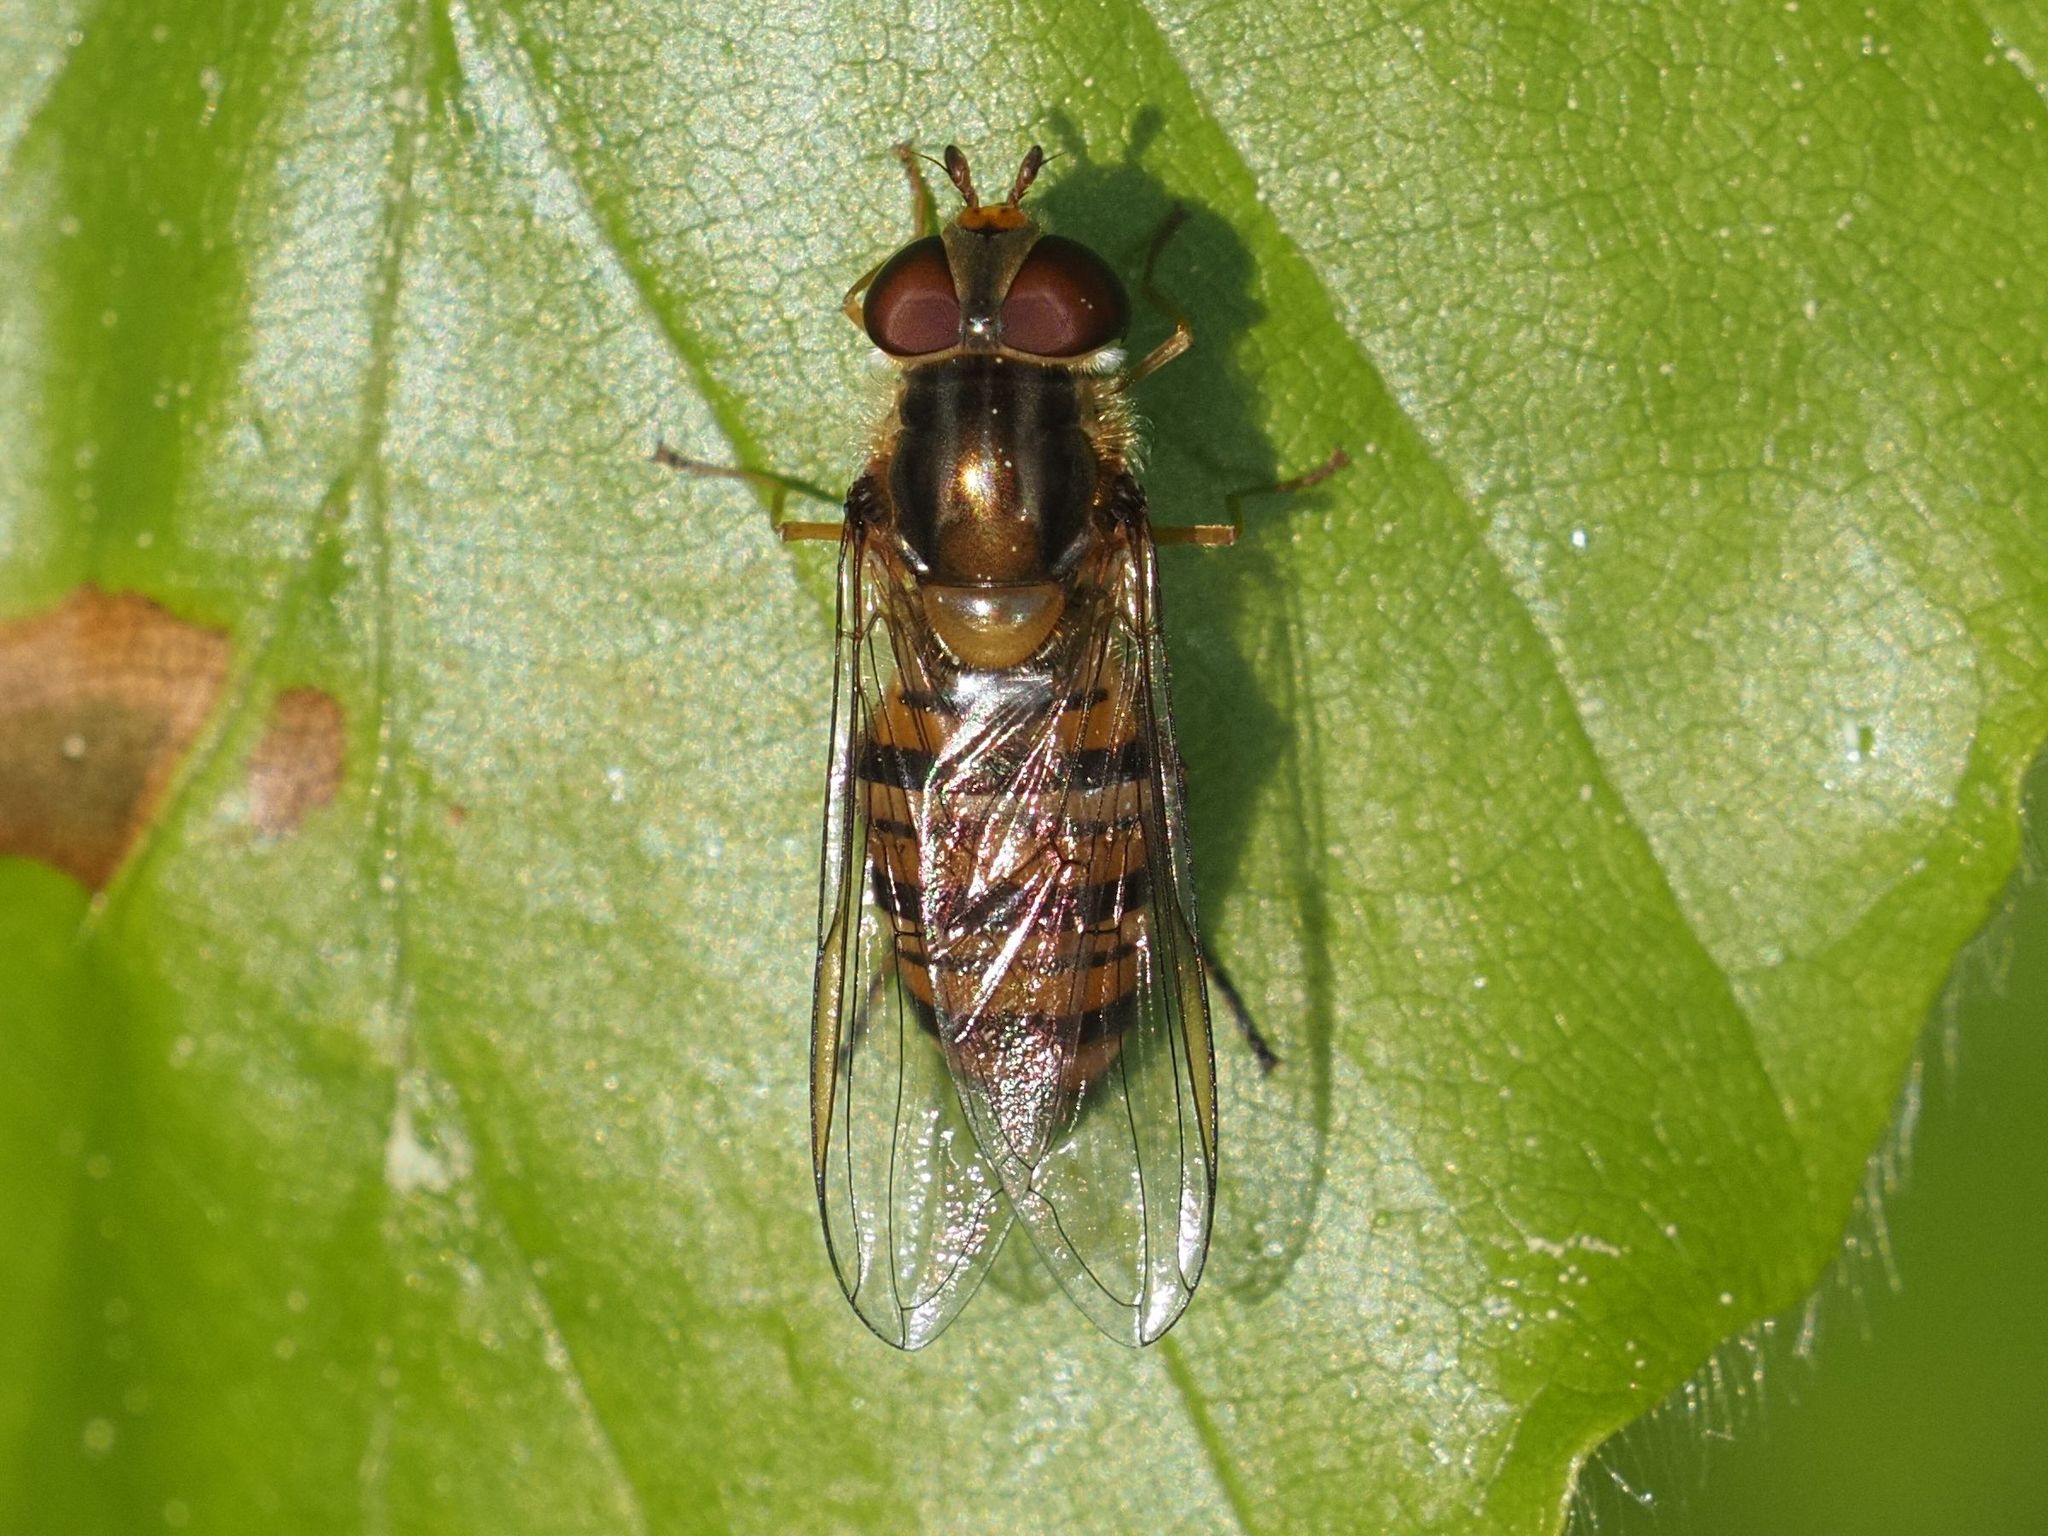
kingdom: Animalia
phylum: Arthropoda
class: Insecta
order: Diptera
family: Syrphidae
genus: Episyrphus
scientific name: Episyrphus balteatus
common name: Marmalade hoverfly
